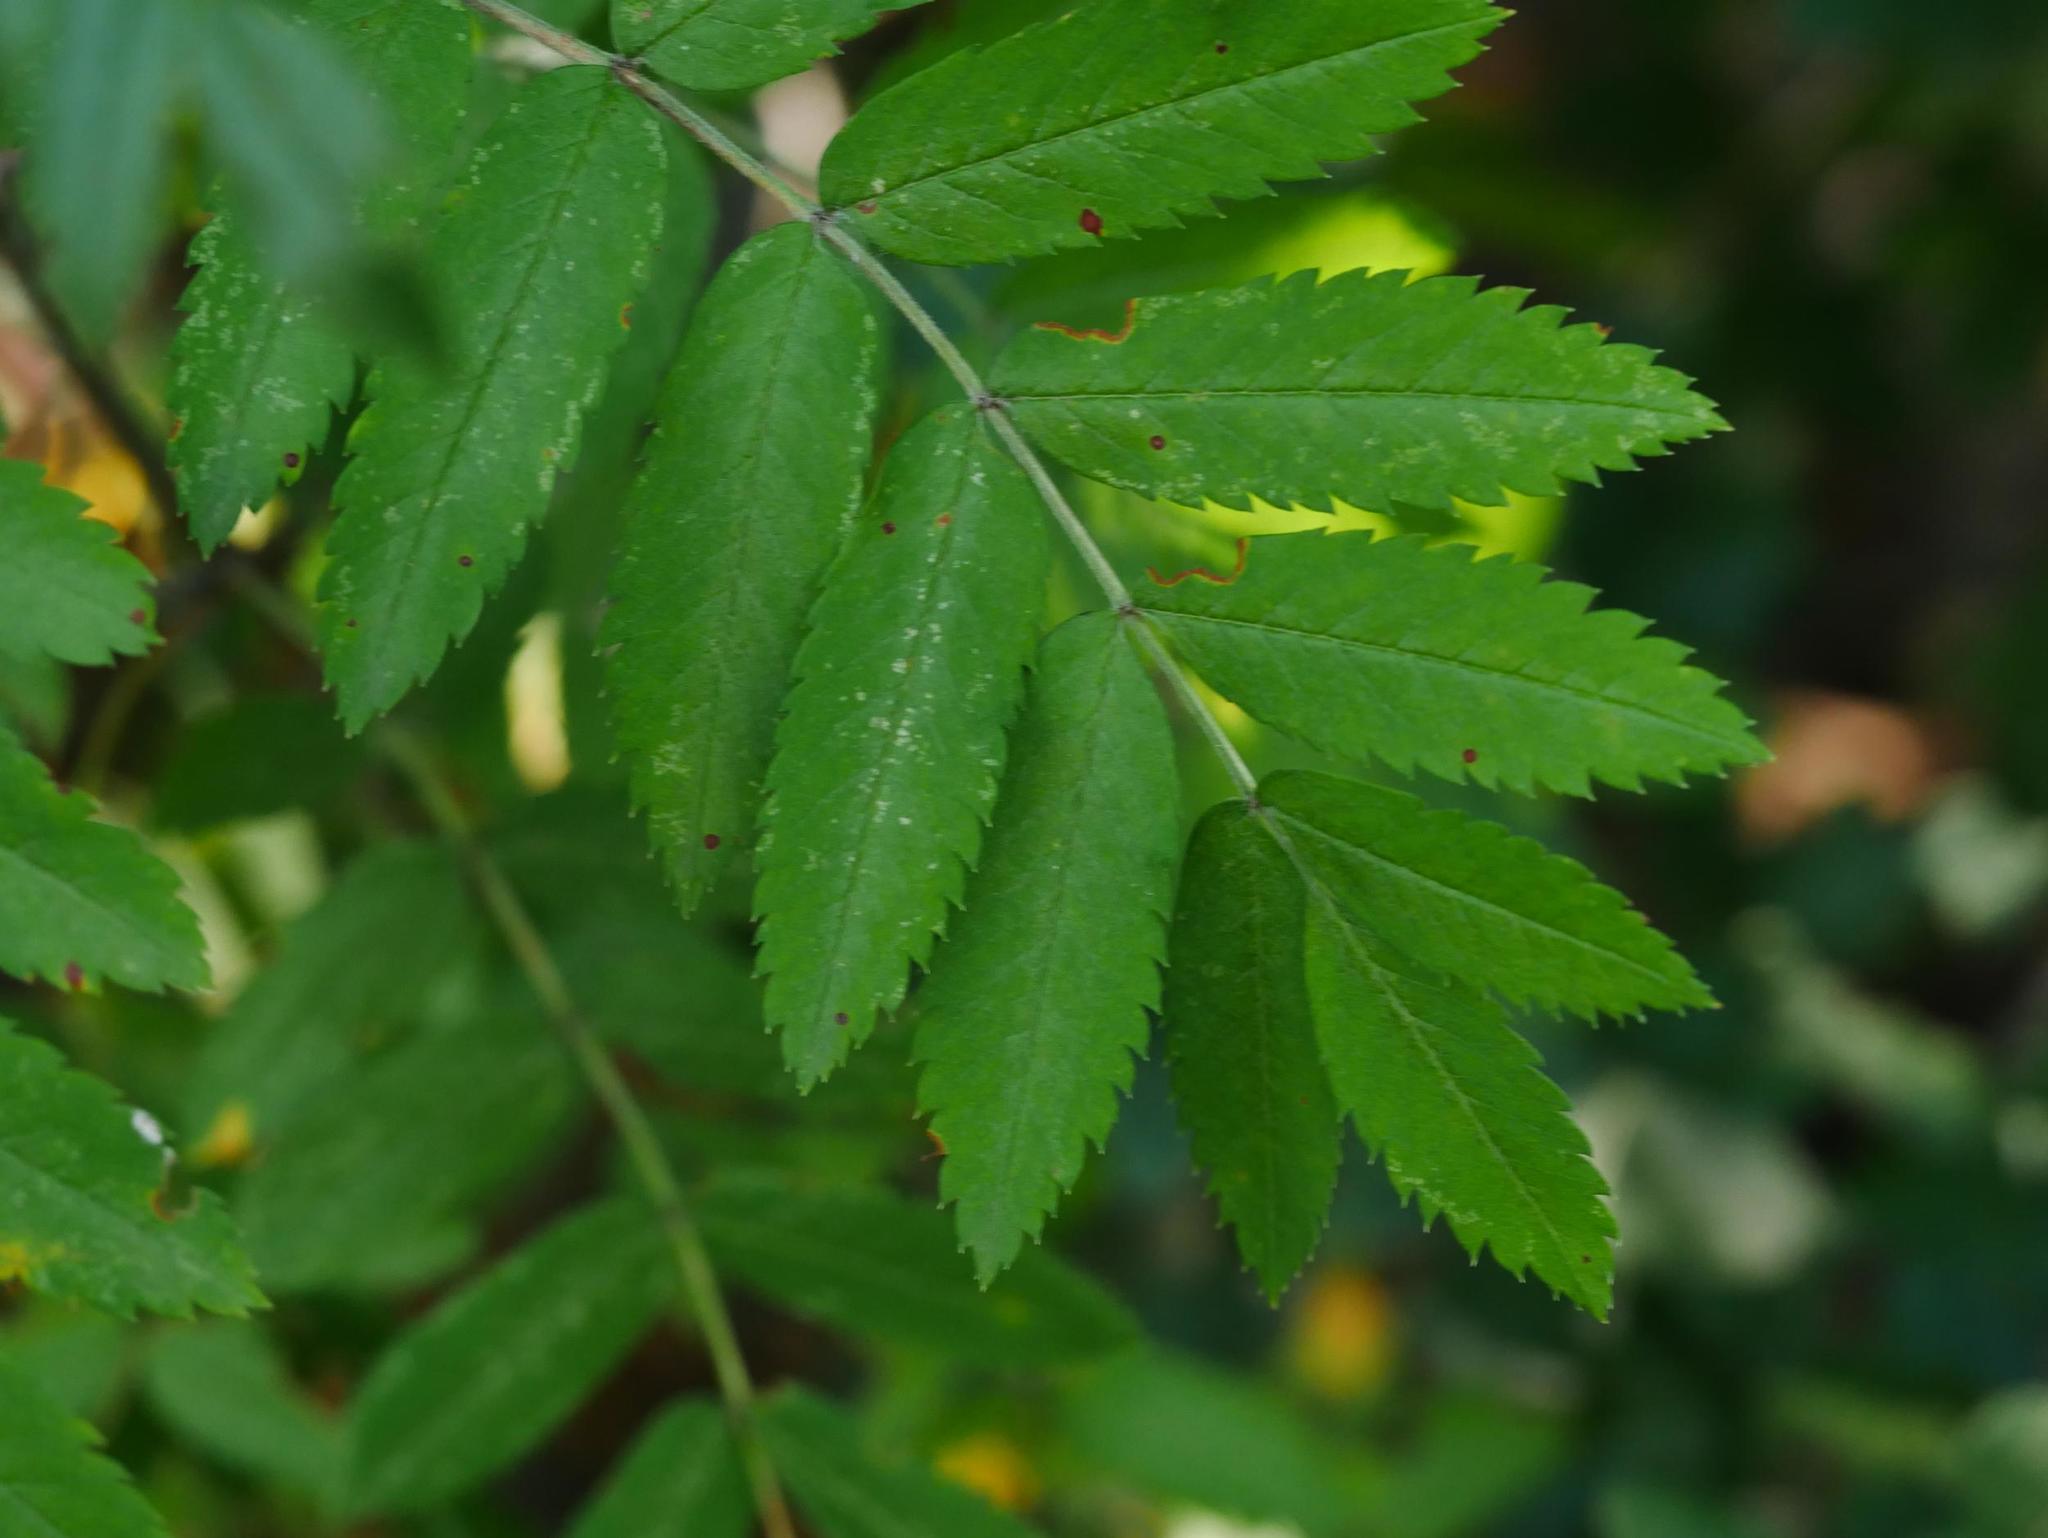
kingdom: Plantae
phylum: Tracheophyta
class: Magnoliopsida
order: Rosales
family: Rosaceae
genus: Sorbus
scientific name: Sorbus aucuparia
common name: Rowan
